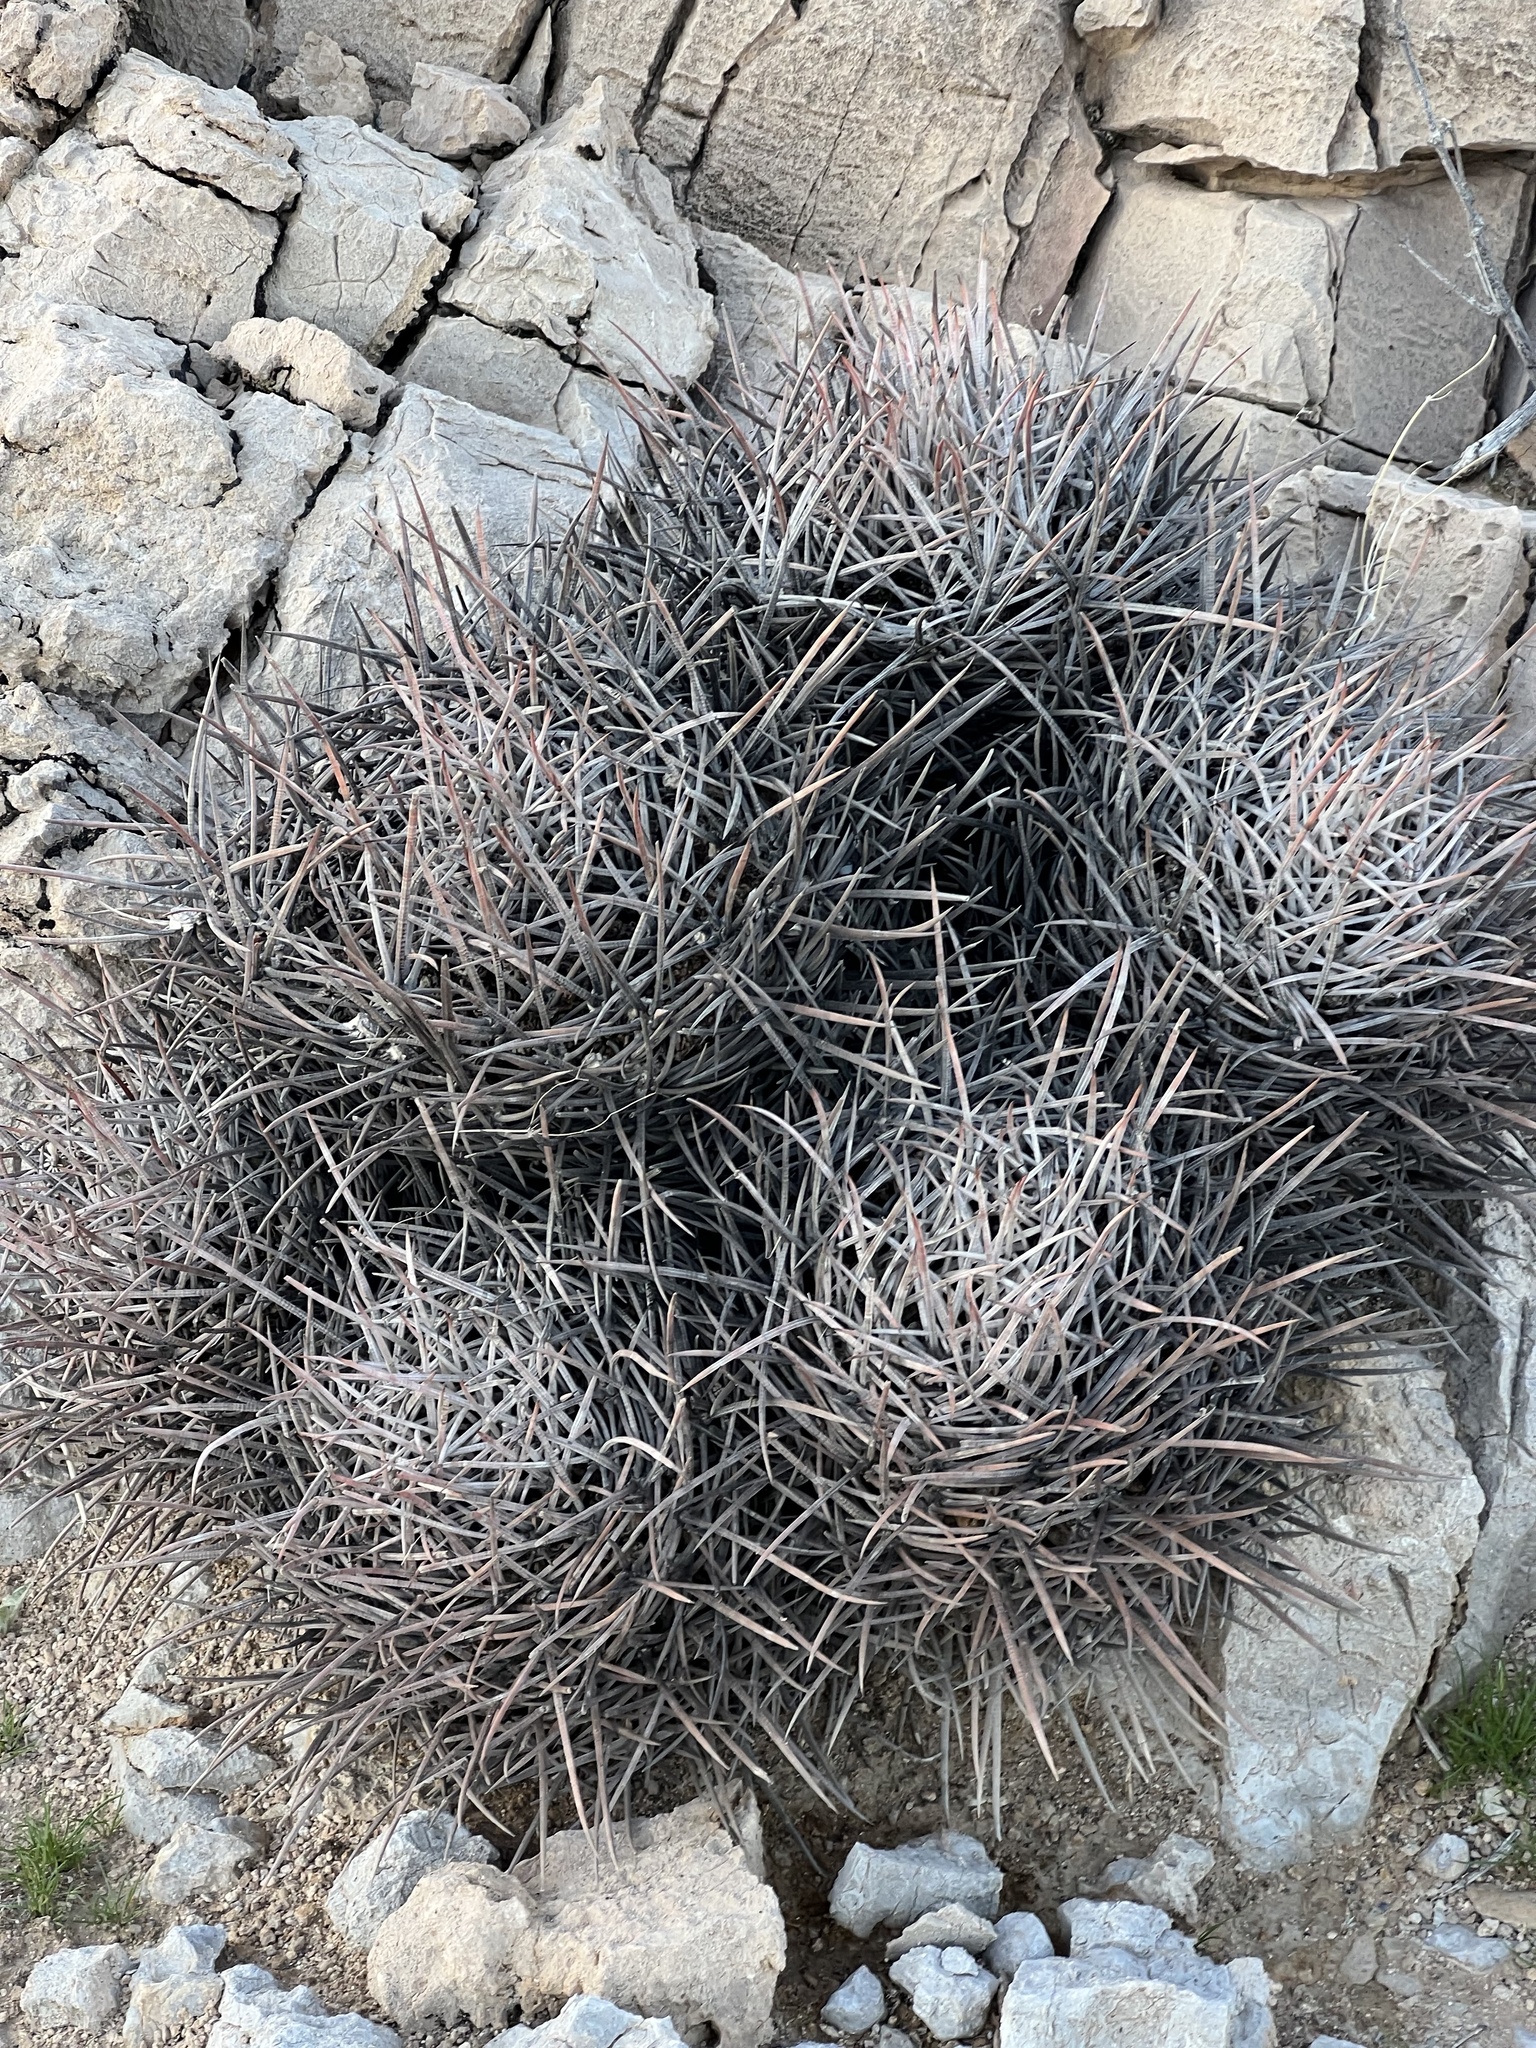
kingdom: Plantae
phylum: Tracheophyta
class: Magnoliopsida
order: Caryophyllales
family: Cactaceae
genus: Echinocactus
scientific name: Echinocactus polycephalus
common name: Cottontop cactus
